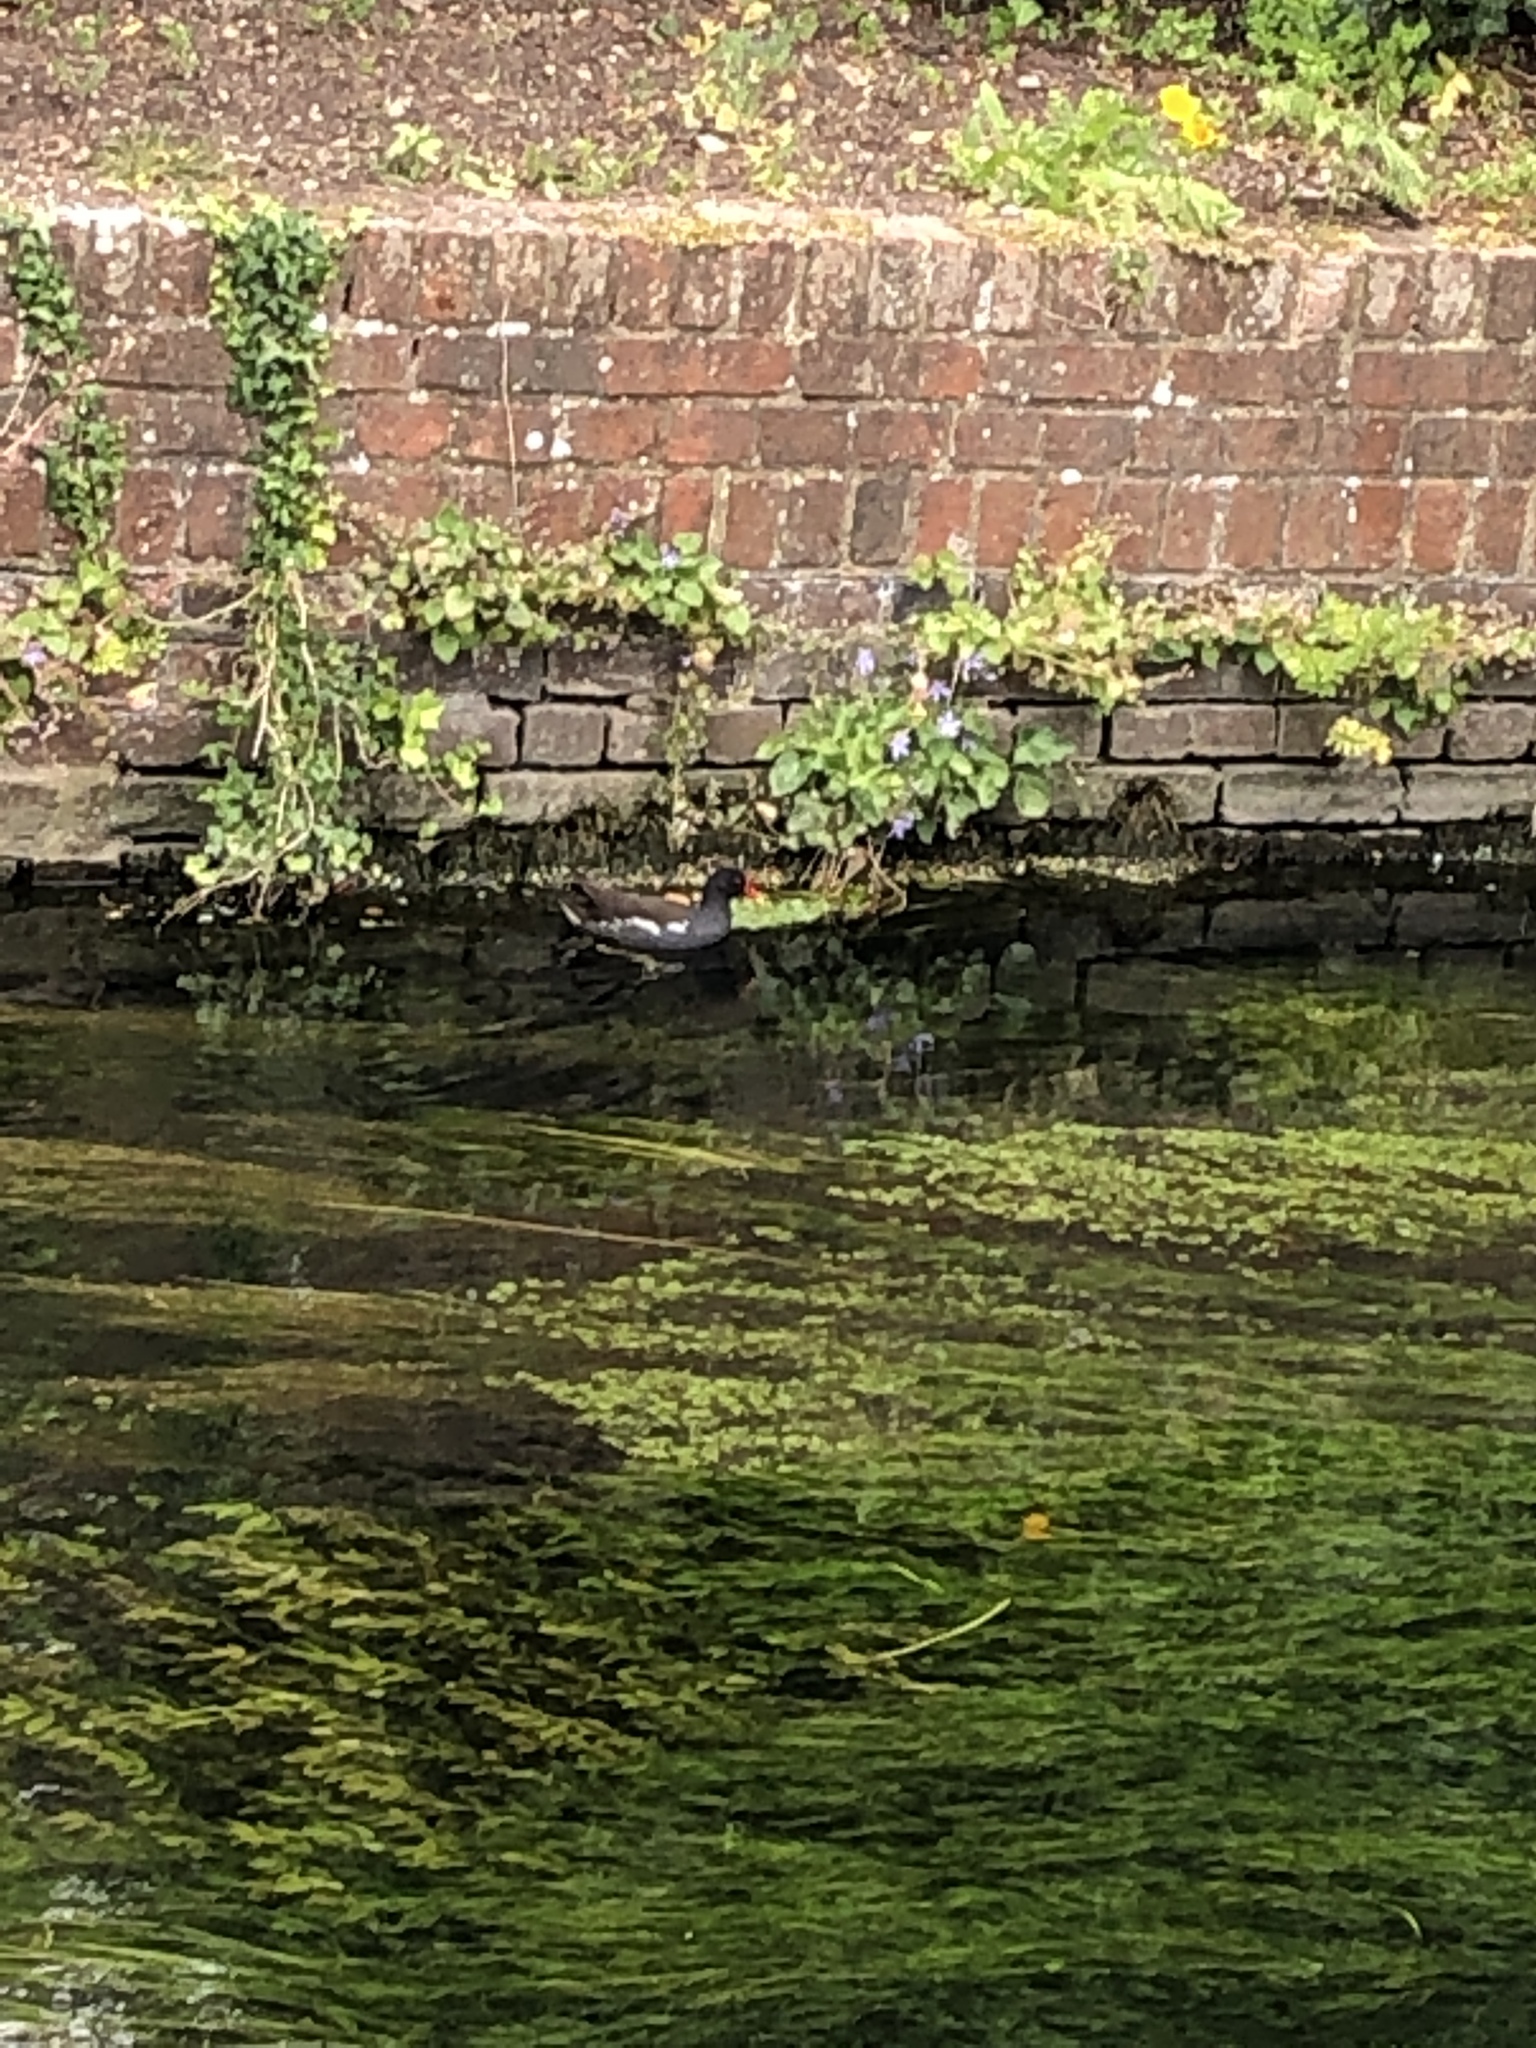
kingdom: Animalia
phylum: Chordata
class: Aves
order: Gruiformes
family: Rallidae
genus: Gallinula
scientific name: Gallinula chloropus
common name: Common moorhen
